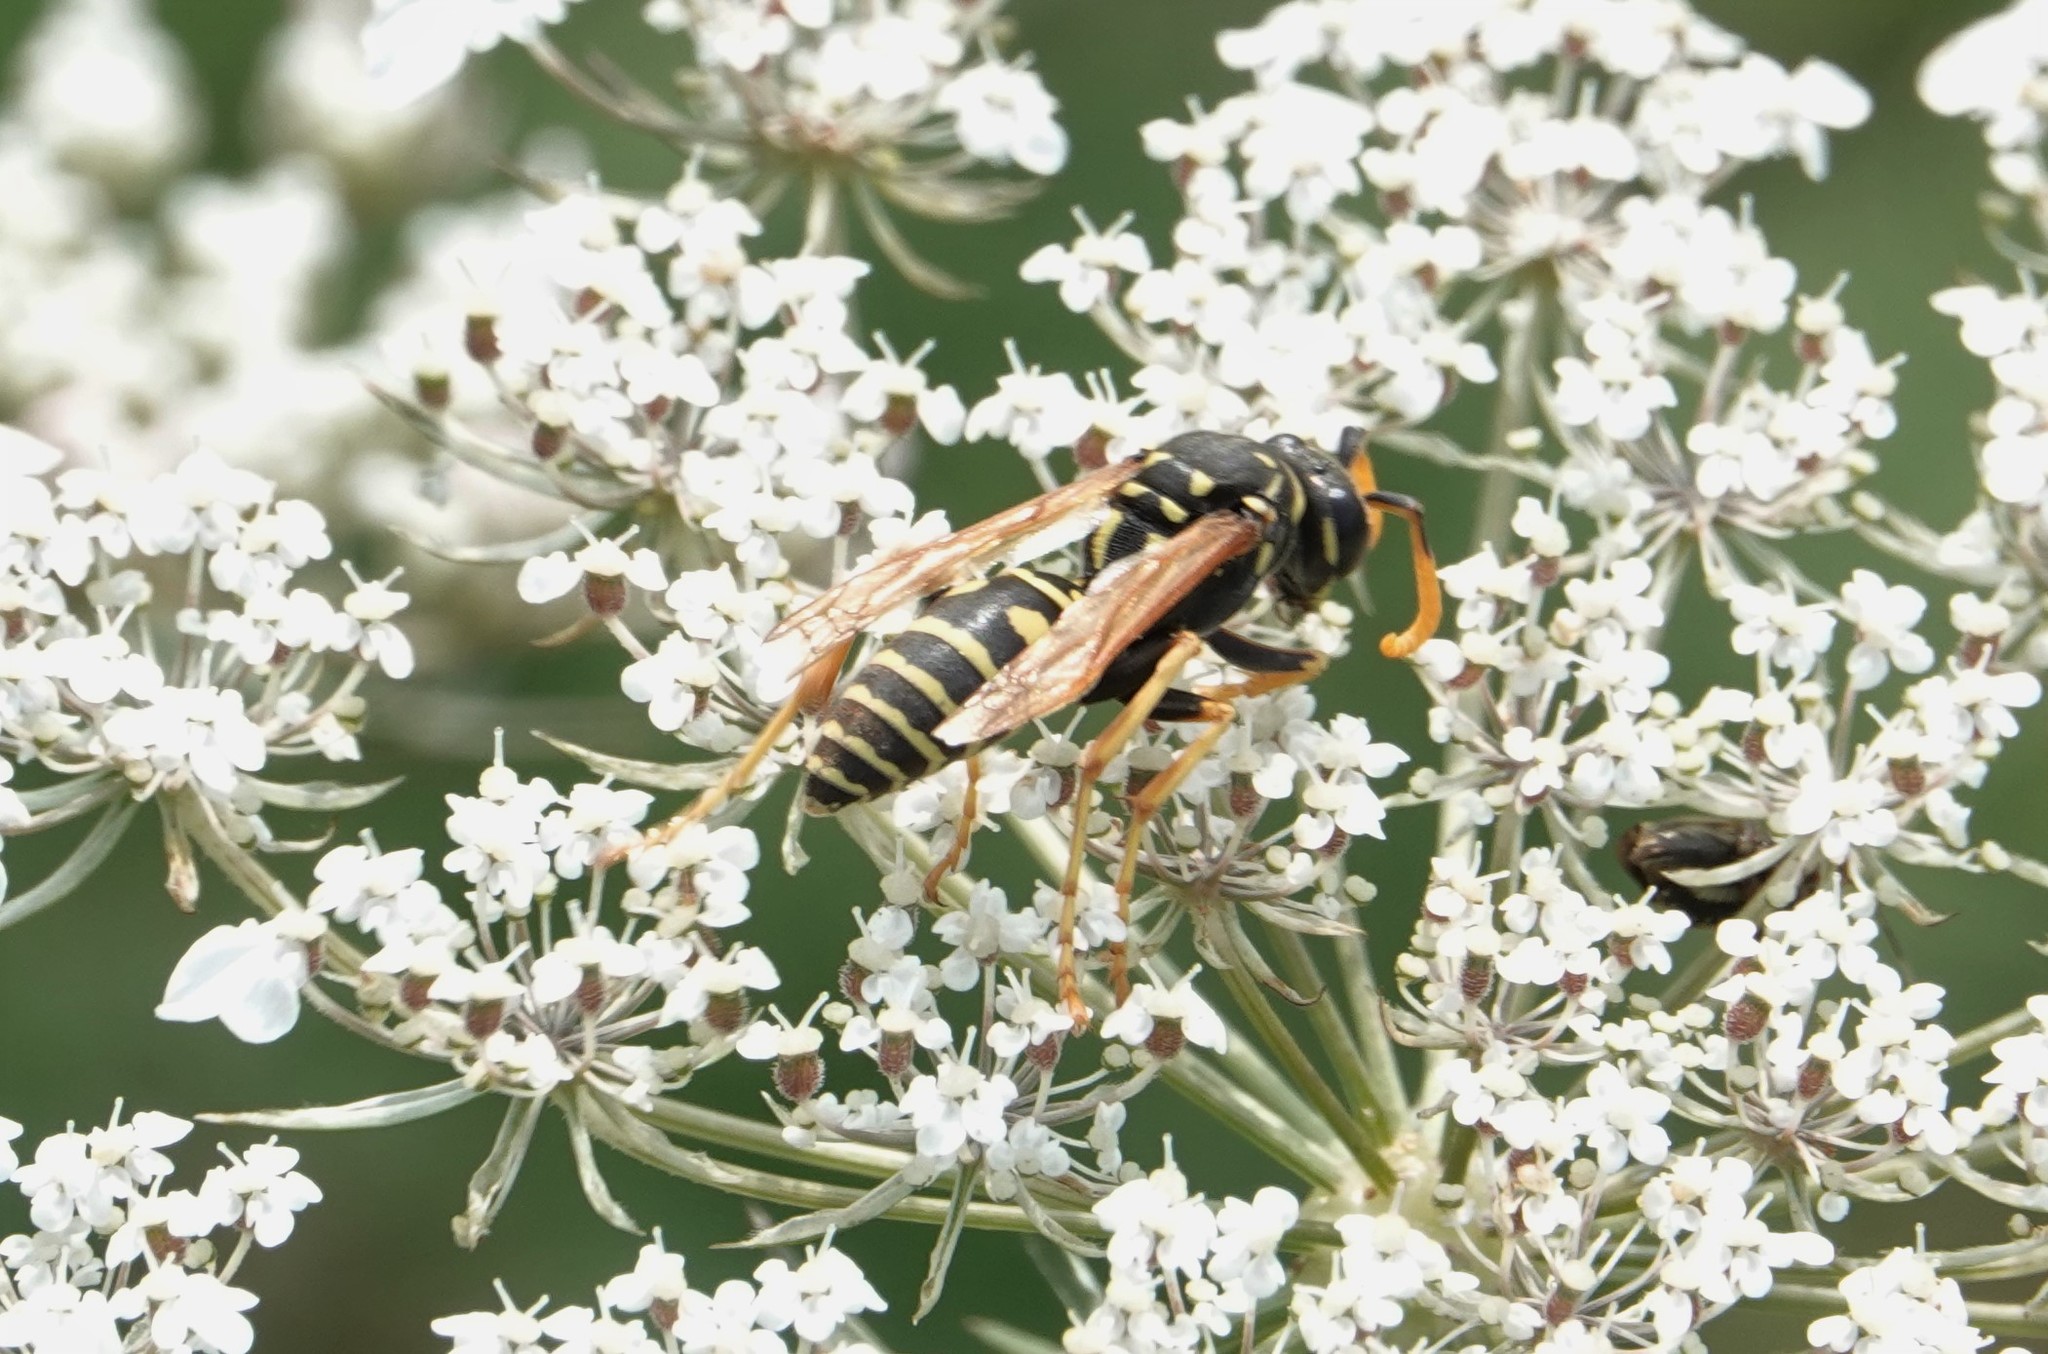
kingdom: Animalia
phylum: Arthropoda
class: Insecta
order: Hymenoptera
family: Eumenidae
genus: Polistes
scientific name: Polistes dominula
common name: Paper wasp
